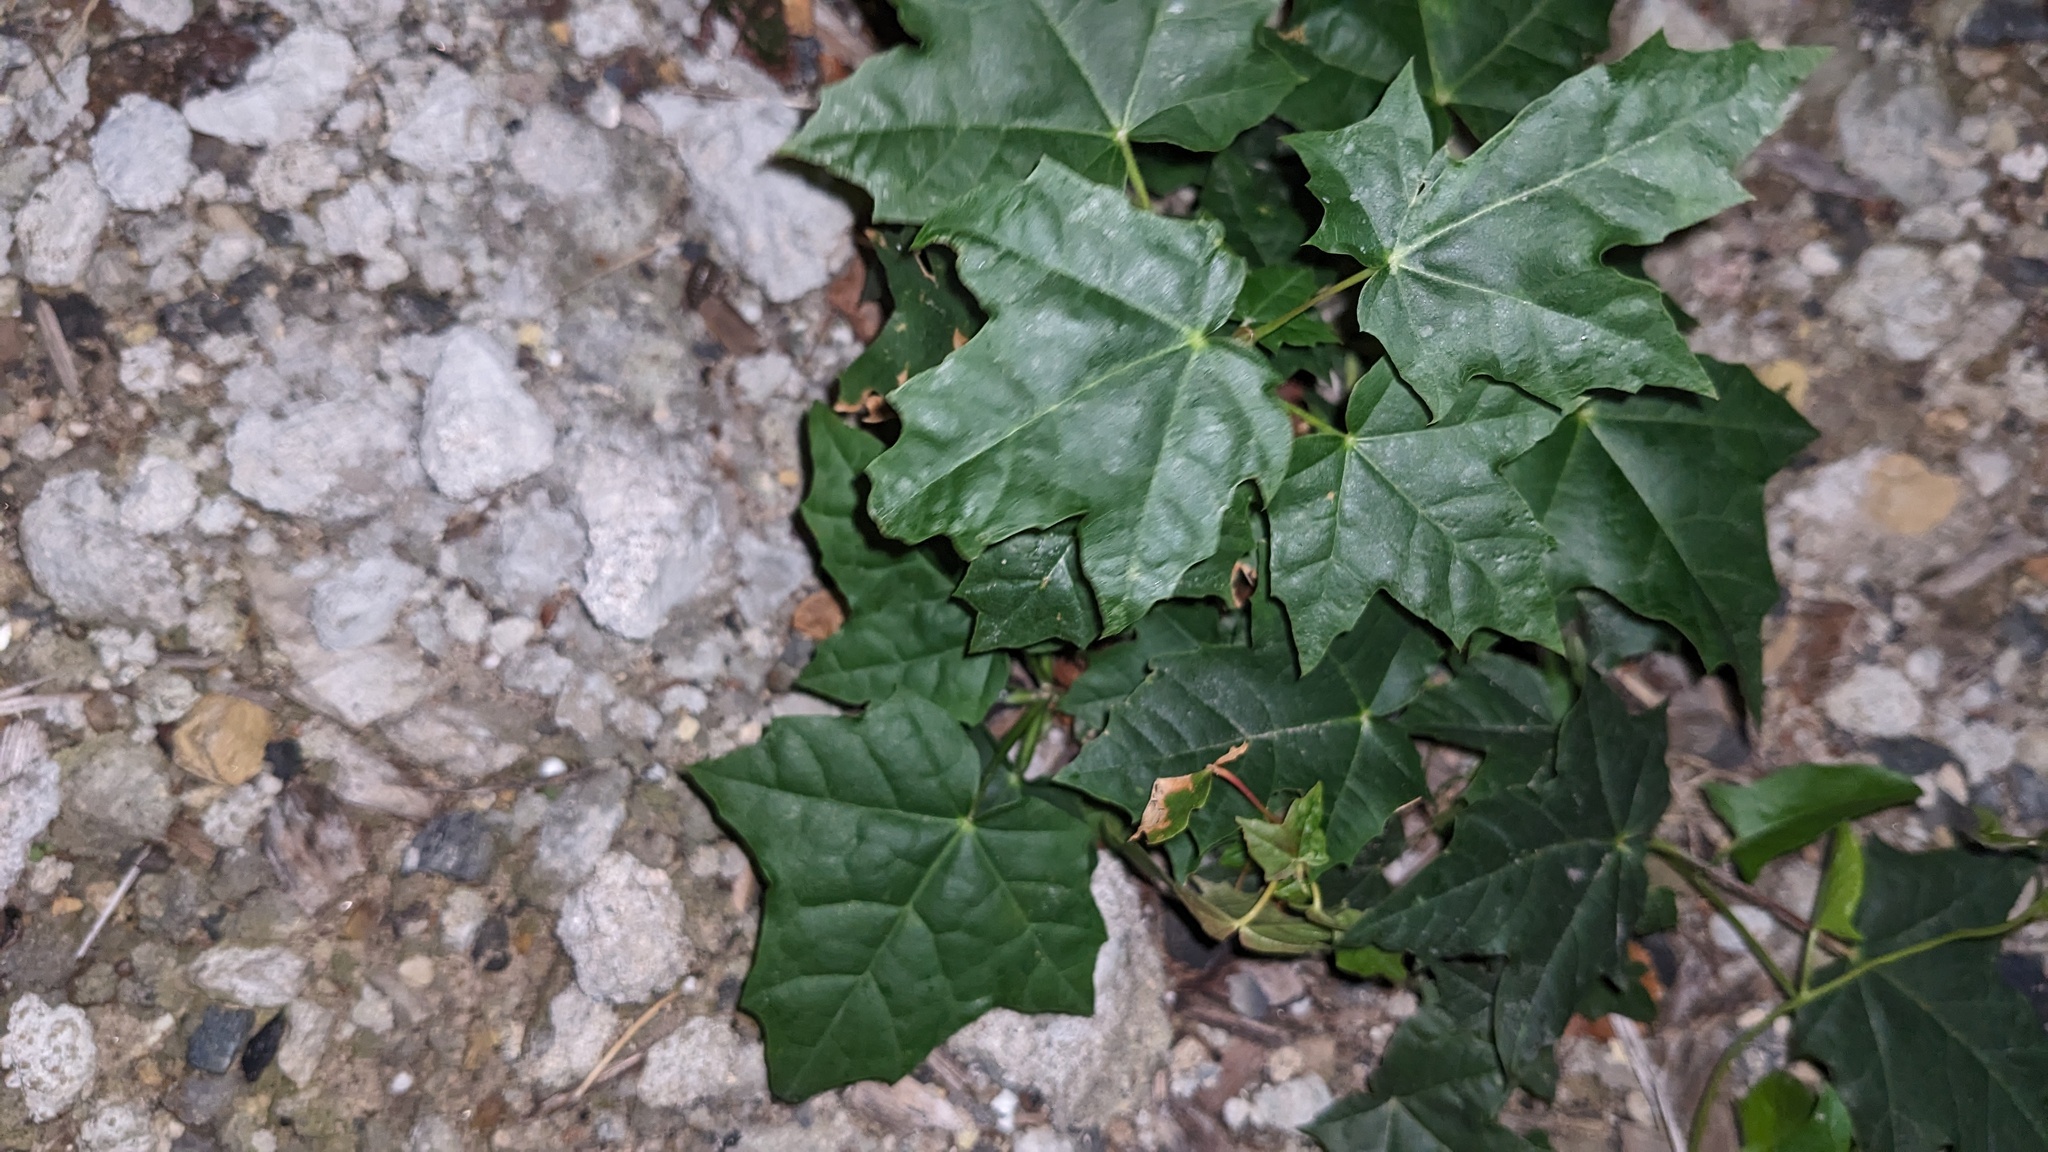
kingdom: Plantae
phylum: Tracheophyta
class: Magnoliopsida
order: Sapindales
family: Sapindaceae
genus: Acer
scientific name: Acer platanoides
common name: Norway maple
